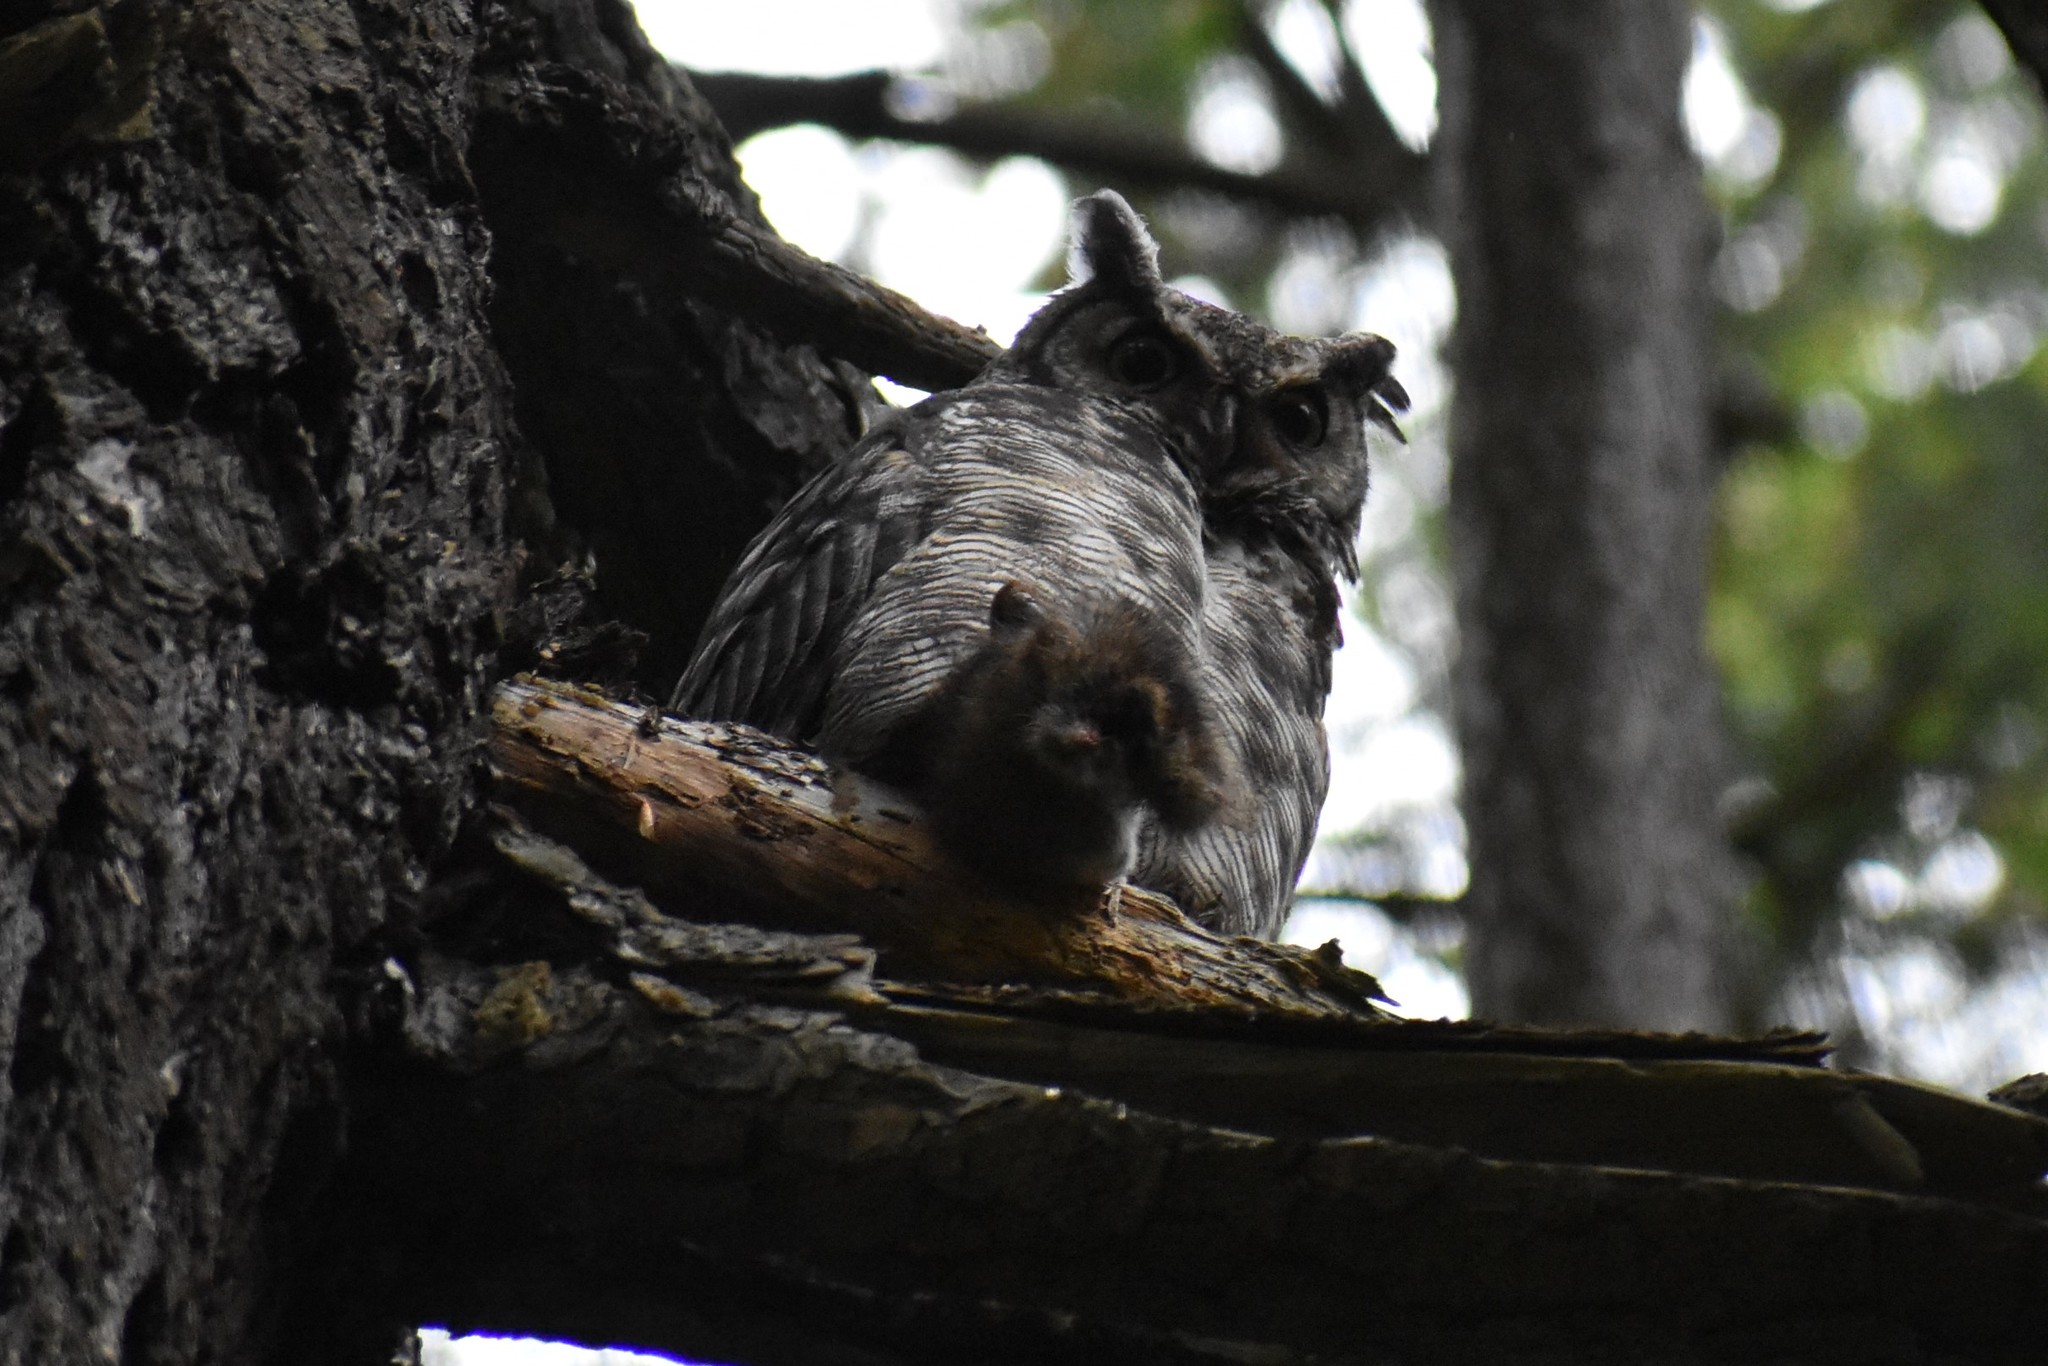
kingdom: Animalia
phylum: Chordata
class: Aves
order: Strigiformes
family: Strigidae
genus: Bubo
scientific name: Bubo virginianus
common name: Great horned owl
